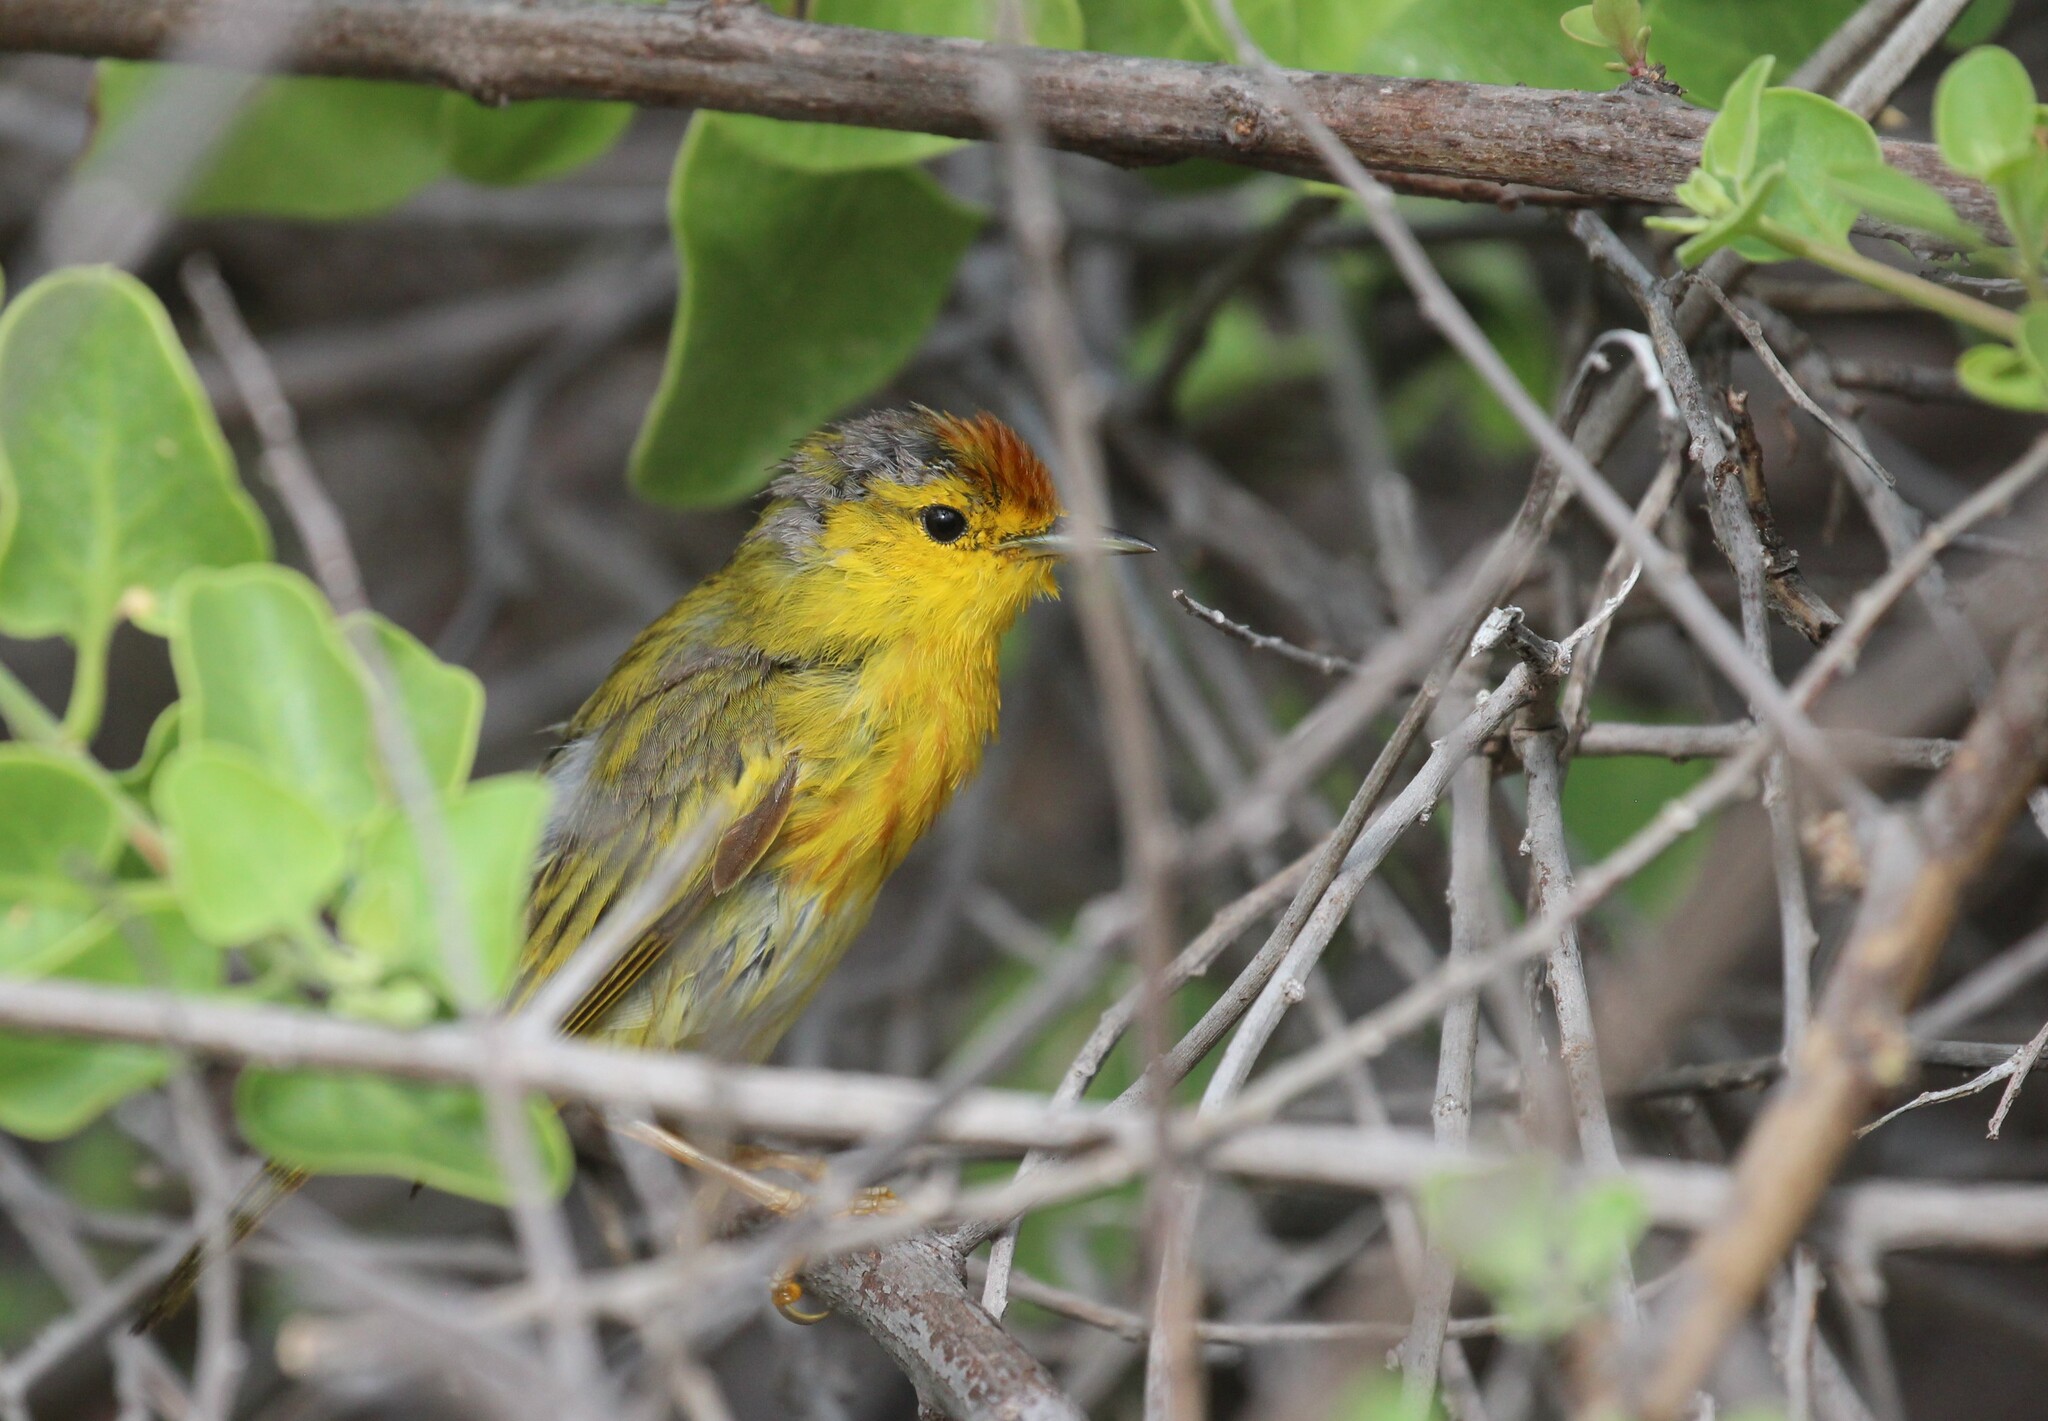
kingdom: Animalia
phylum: Chordata
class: Aves
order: Passeriformes
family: Parulidae
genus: Setophaga
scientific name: Setophaga petechia
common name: Yellow warbler
